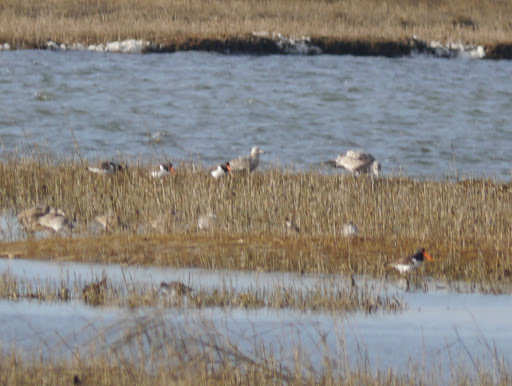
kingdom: Animalia
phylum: Chordata
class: Aves
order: Charadriiformes
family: Haematopodidae
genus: Haematopus
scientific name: Haematopus palliatus
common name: American oystercatcher
